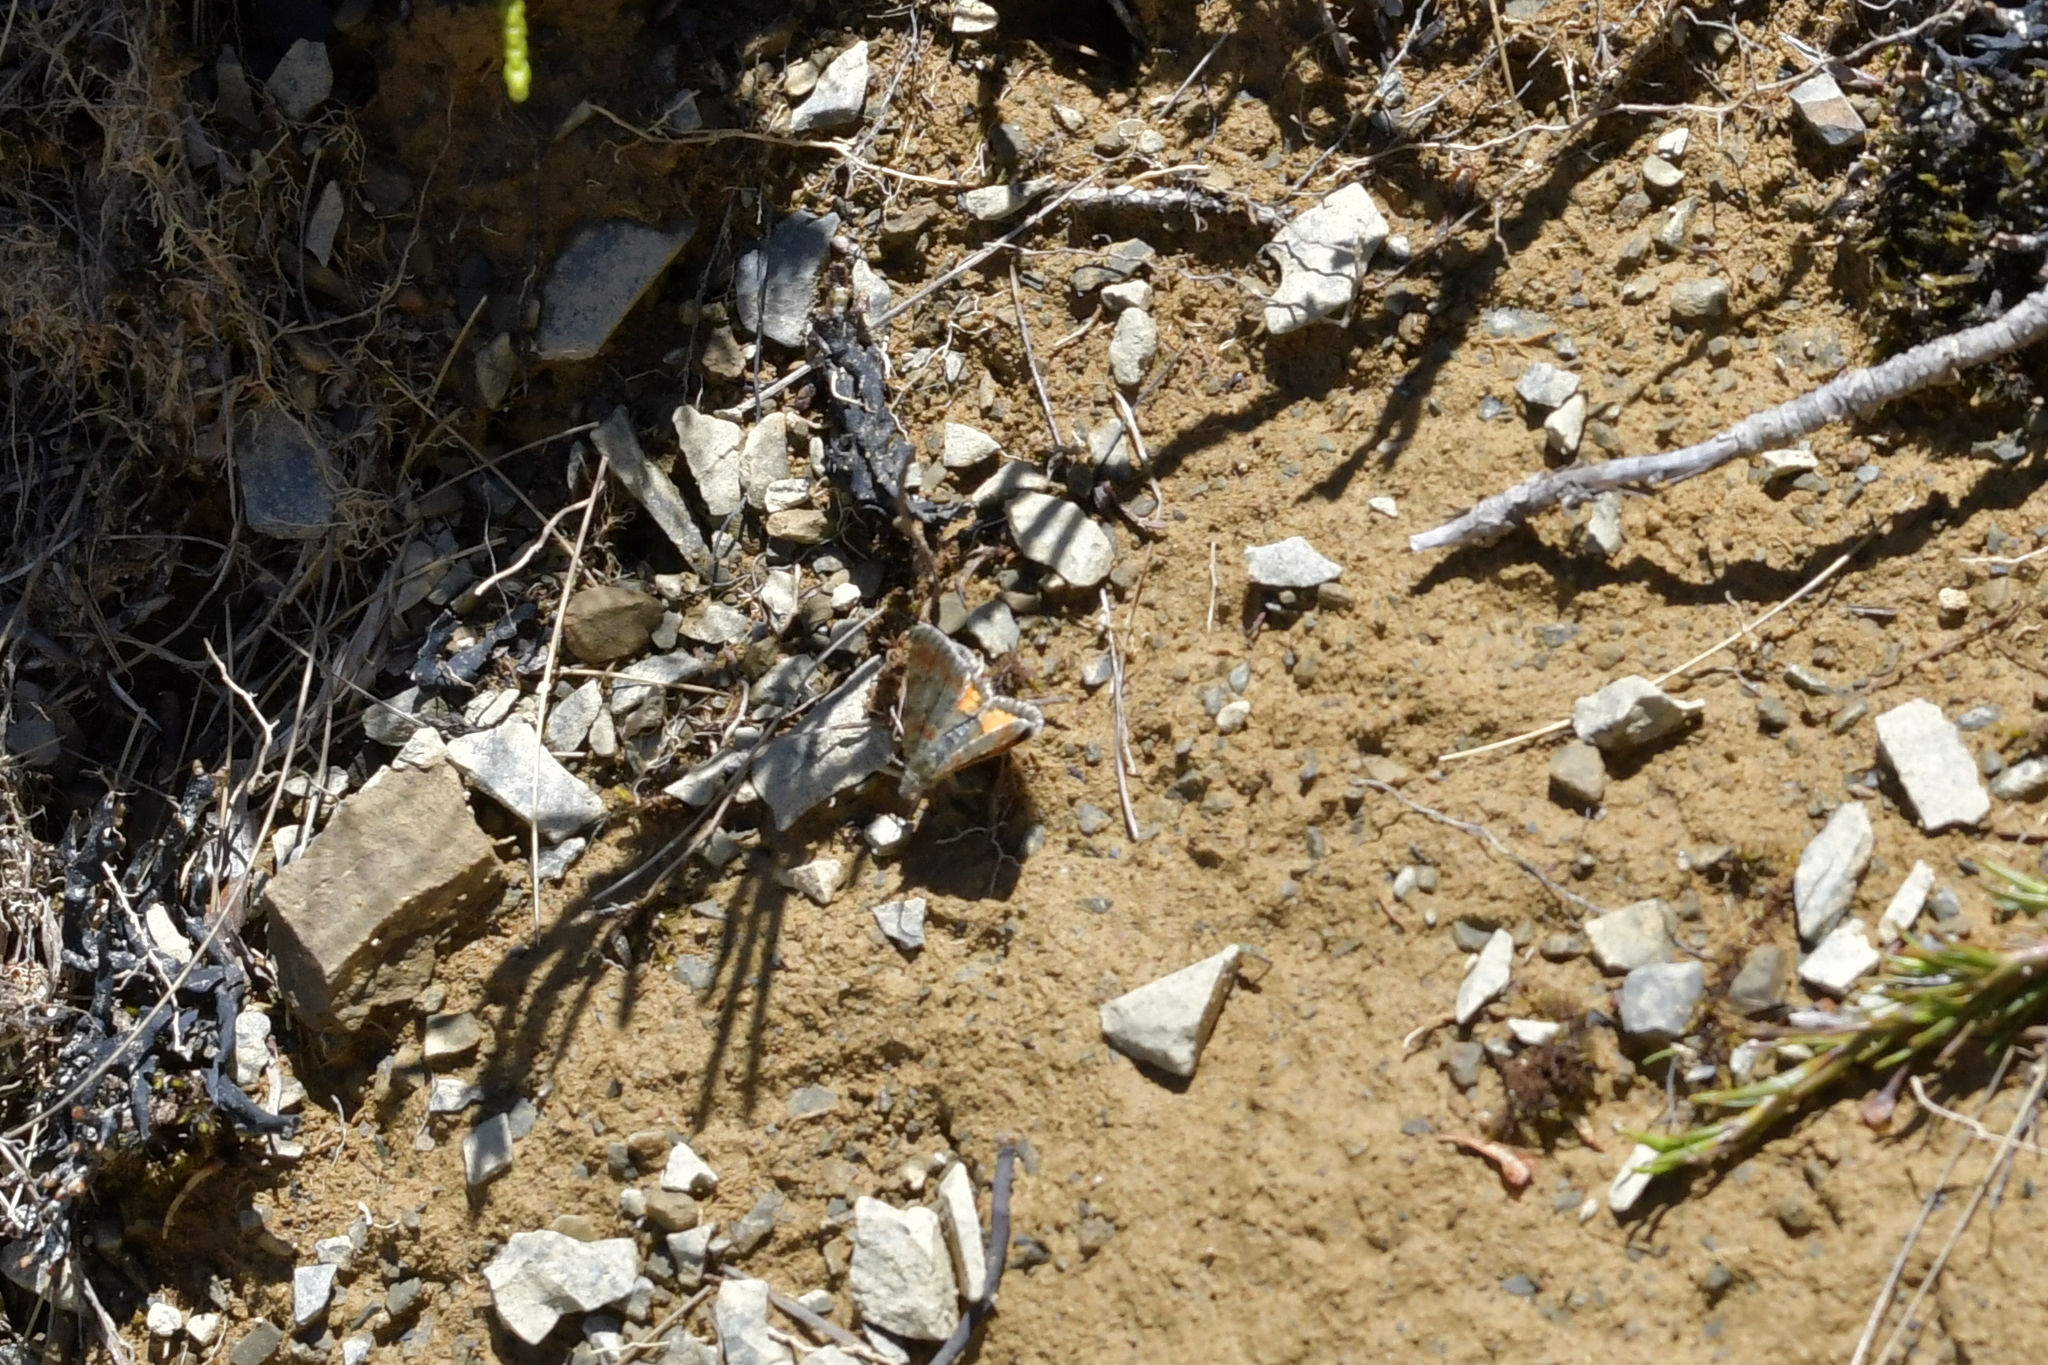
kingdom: Animalia
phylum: Arthropoda
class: Insecta
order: Lepidoptera
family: Geometridae
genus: Paranotoreas
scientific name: Paranotoreas brephosata
